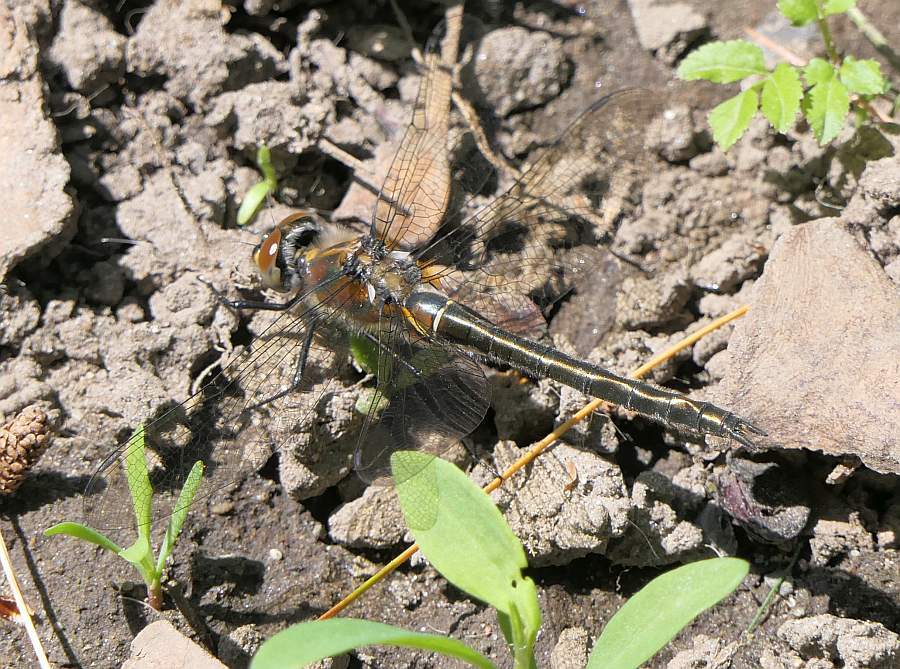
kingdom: Animalia
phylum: Arthropoda
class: Insecta
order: Odonata
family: Corduliidae
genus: Cordulia
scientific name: Cordulia shurtleffii
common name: American emerald
